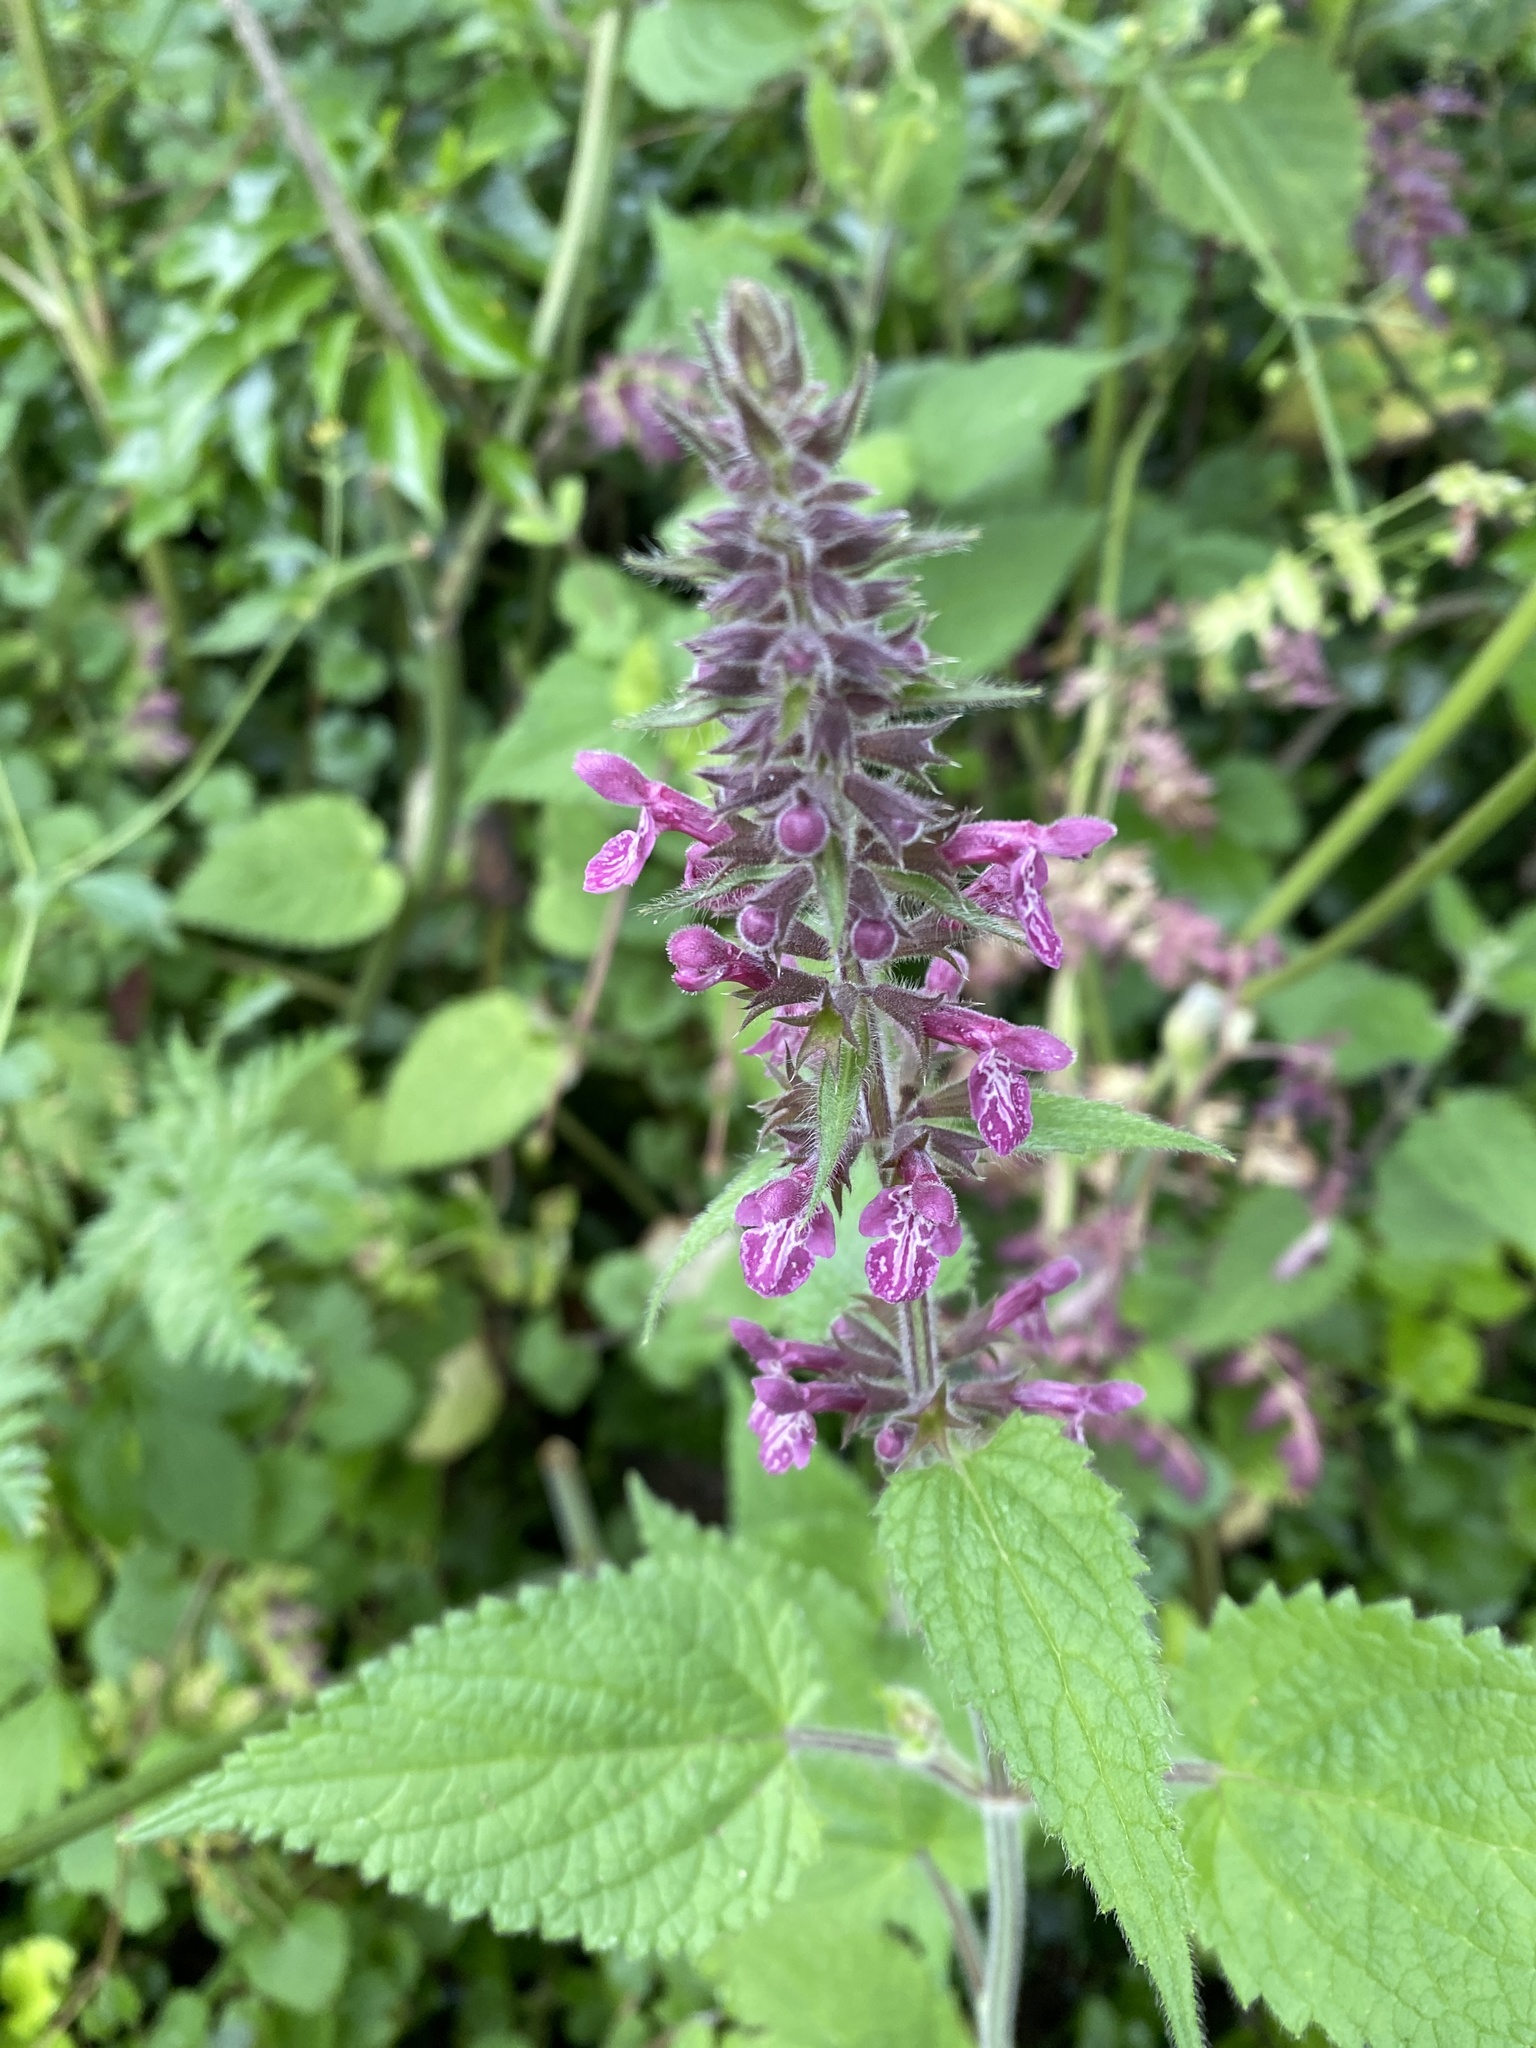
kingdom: Plantae
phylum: Tracheophyta
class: Magnoliopsida
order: Lamiales
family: Lamiaceae
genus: Stachys
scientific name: Stachys sylvatica
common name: Hedge woundwort
